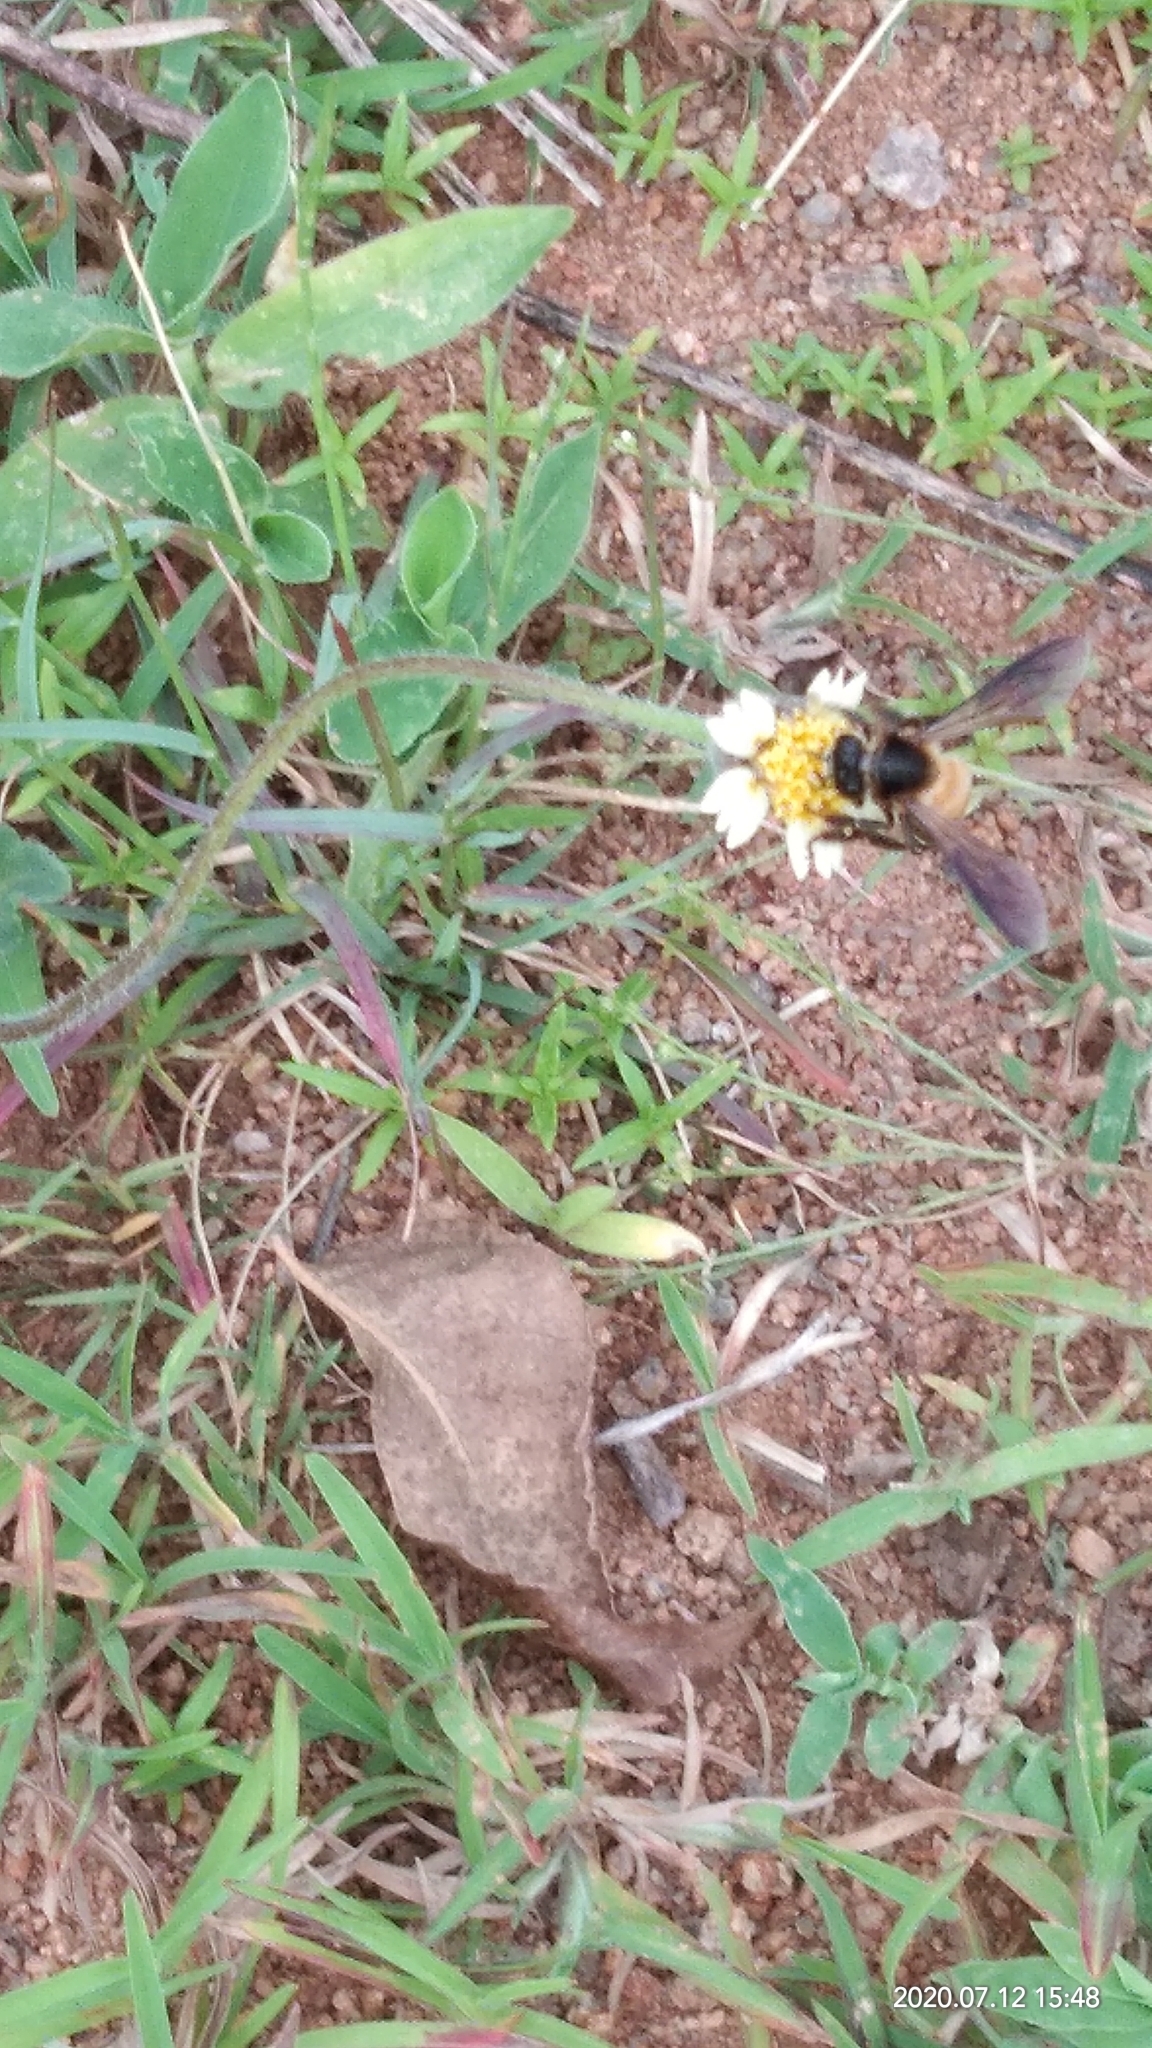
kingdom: Animalia
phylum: Arthropoda
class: Insecta
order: Hymenoptera
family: Apidae
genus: Apis
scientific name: Apis dorsata
